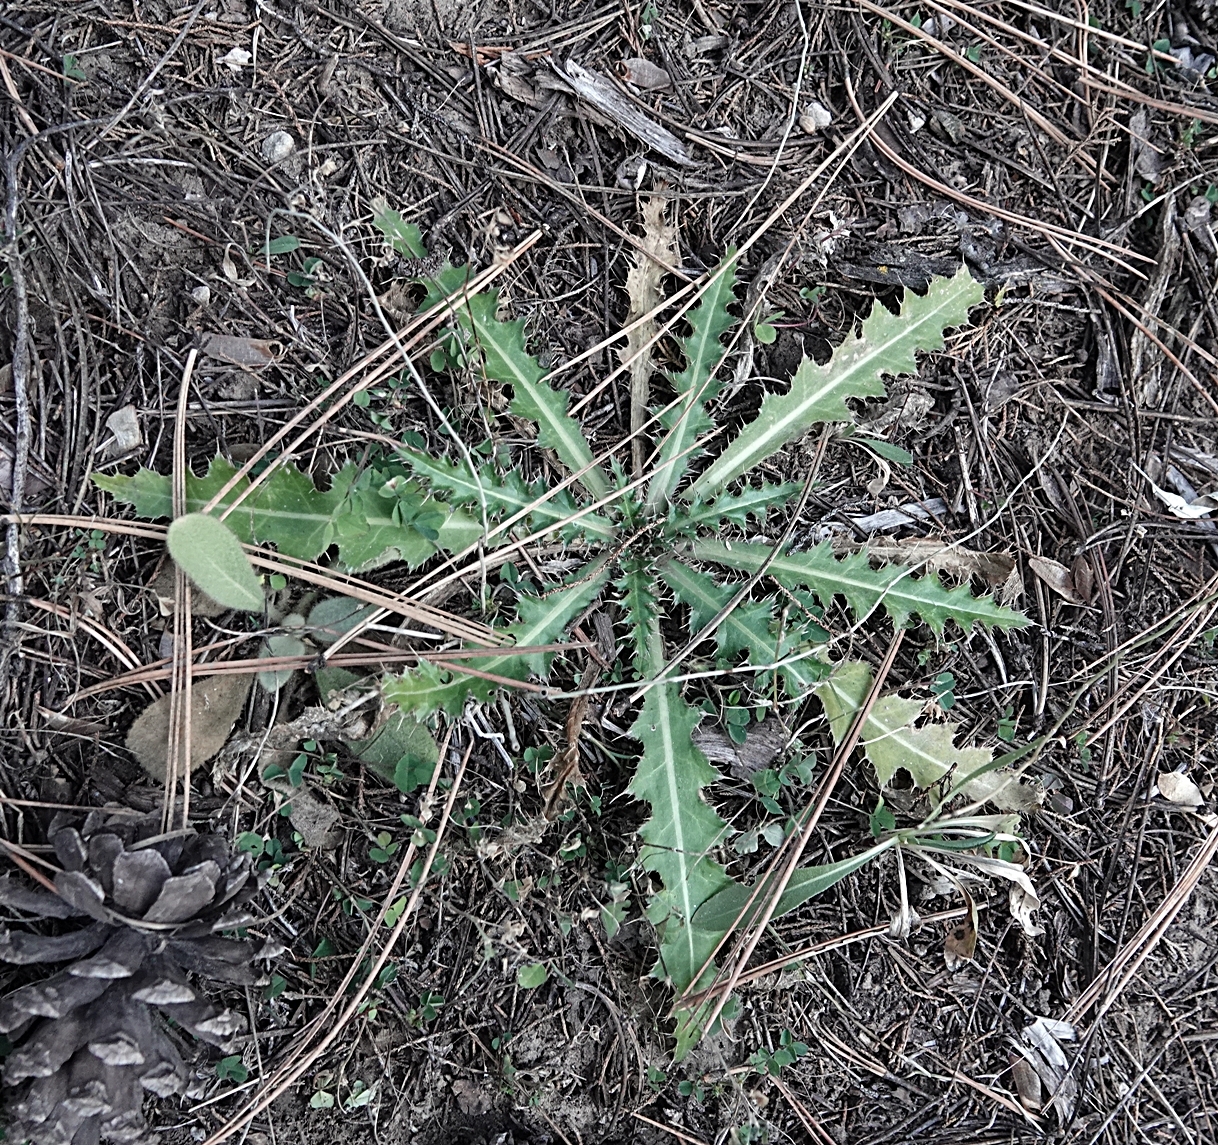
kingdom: Plantae
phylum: Tracheophyta
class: Magnoliopsida
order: Asterales
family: Asteraceae
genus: Carduus
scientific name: Carduus nutans
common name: Musk thistle
